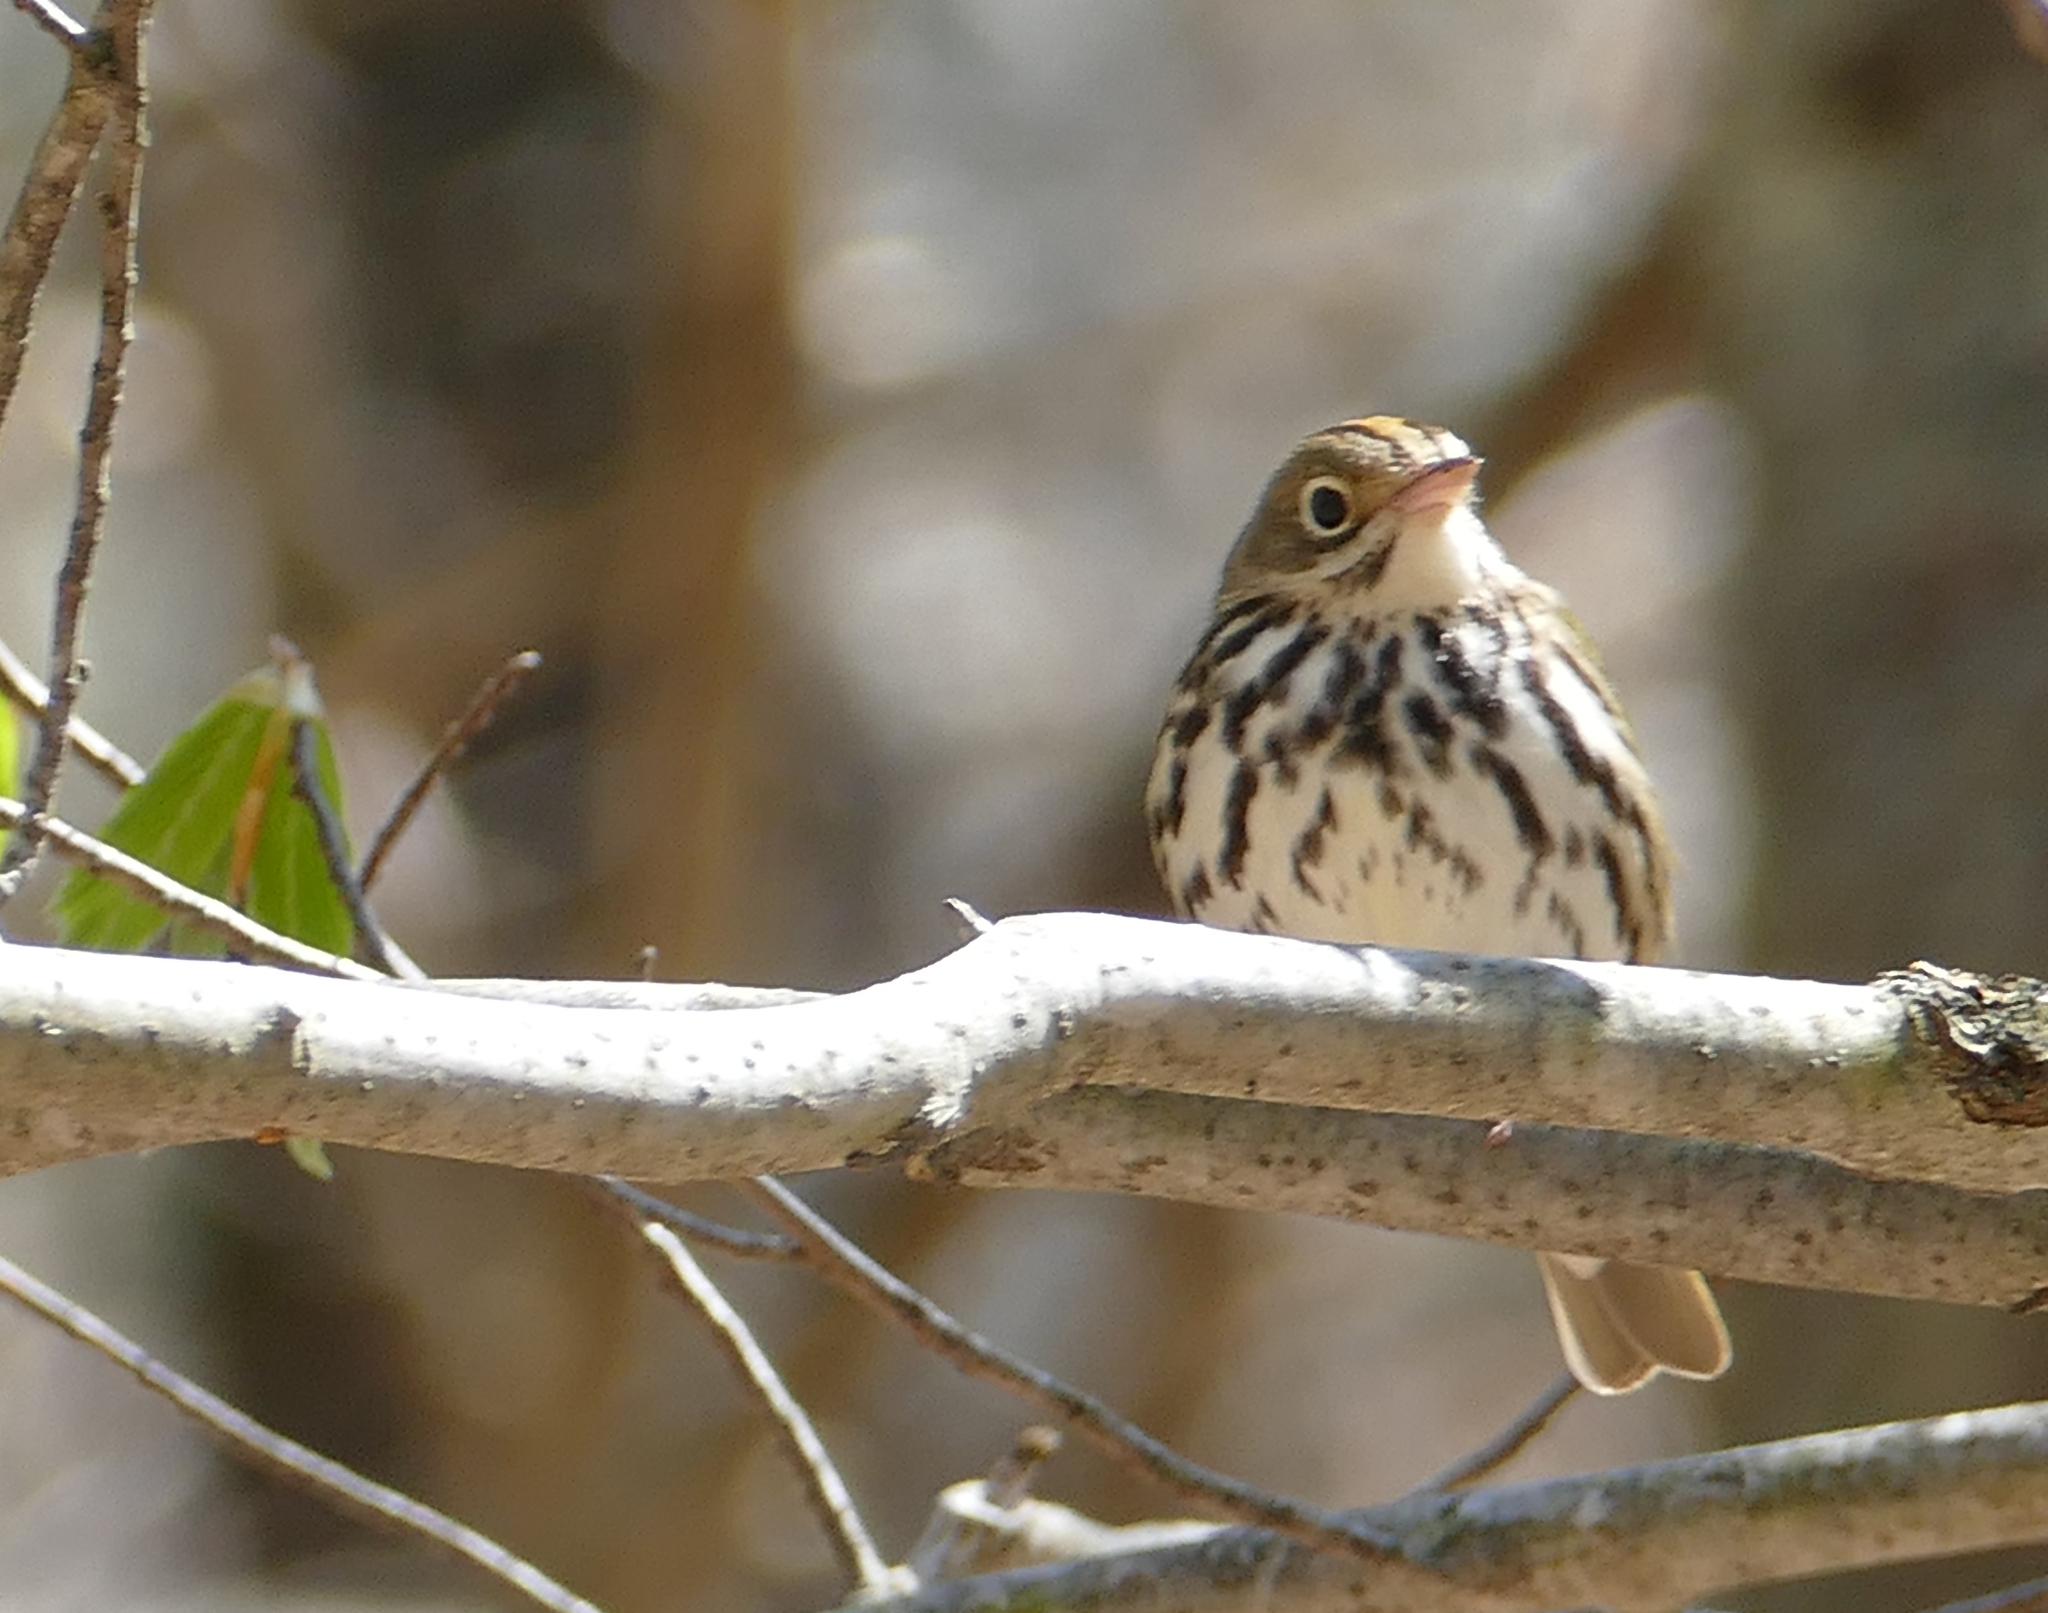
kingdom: Animalia
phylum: Chordata
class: Aves
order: Passeriformes
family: Parulidae
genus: Seiurus
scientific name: Seiurus aurocapilla
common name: Ovenbird
